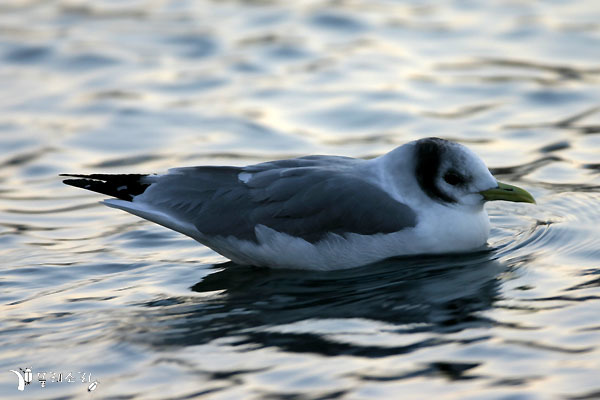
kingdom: Animalia
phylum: Chordata
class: Aves
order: Charadriiformes
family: Laridae
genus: Rissa
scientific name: Rissa tridactyla
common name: Black-legged kittiwake
